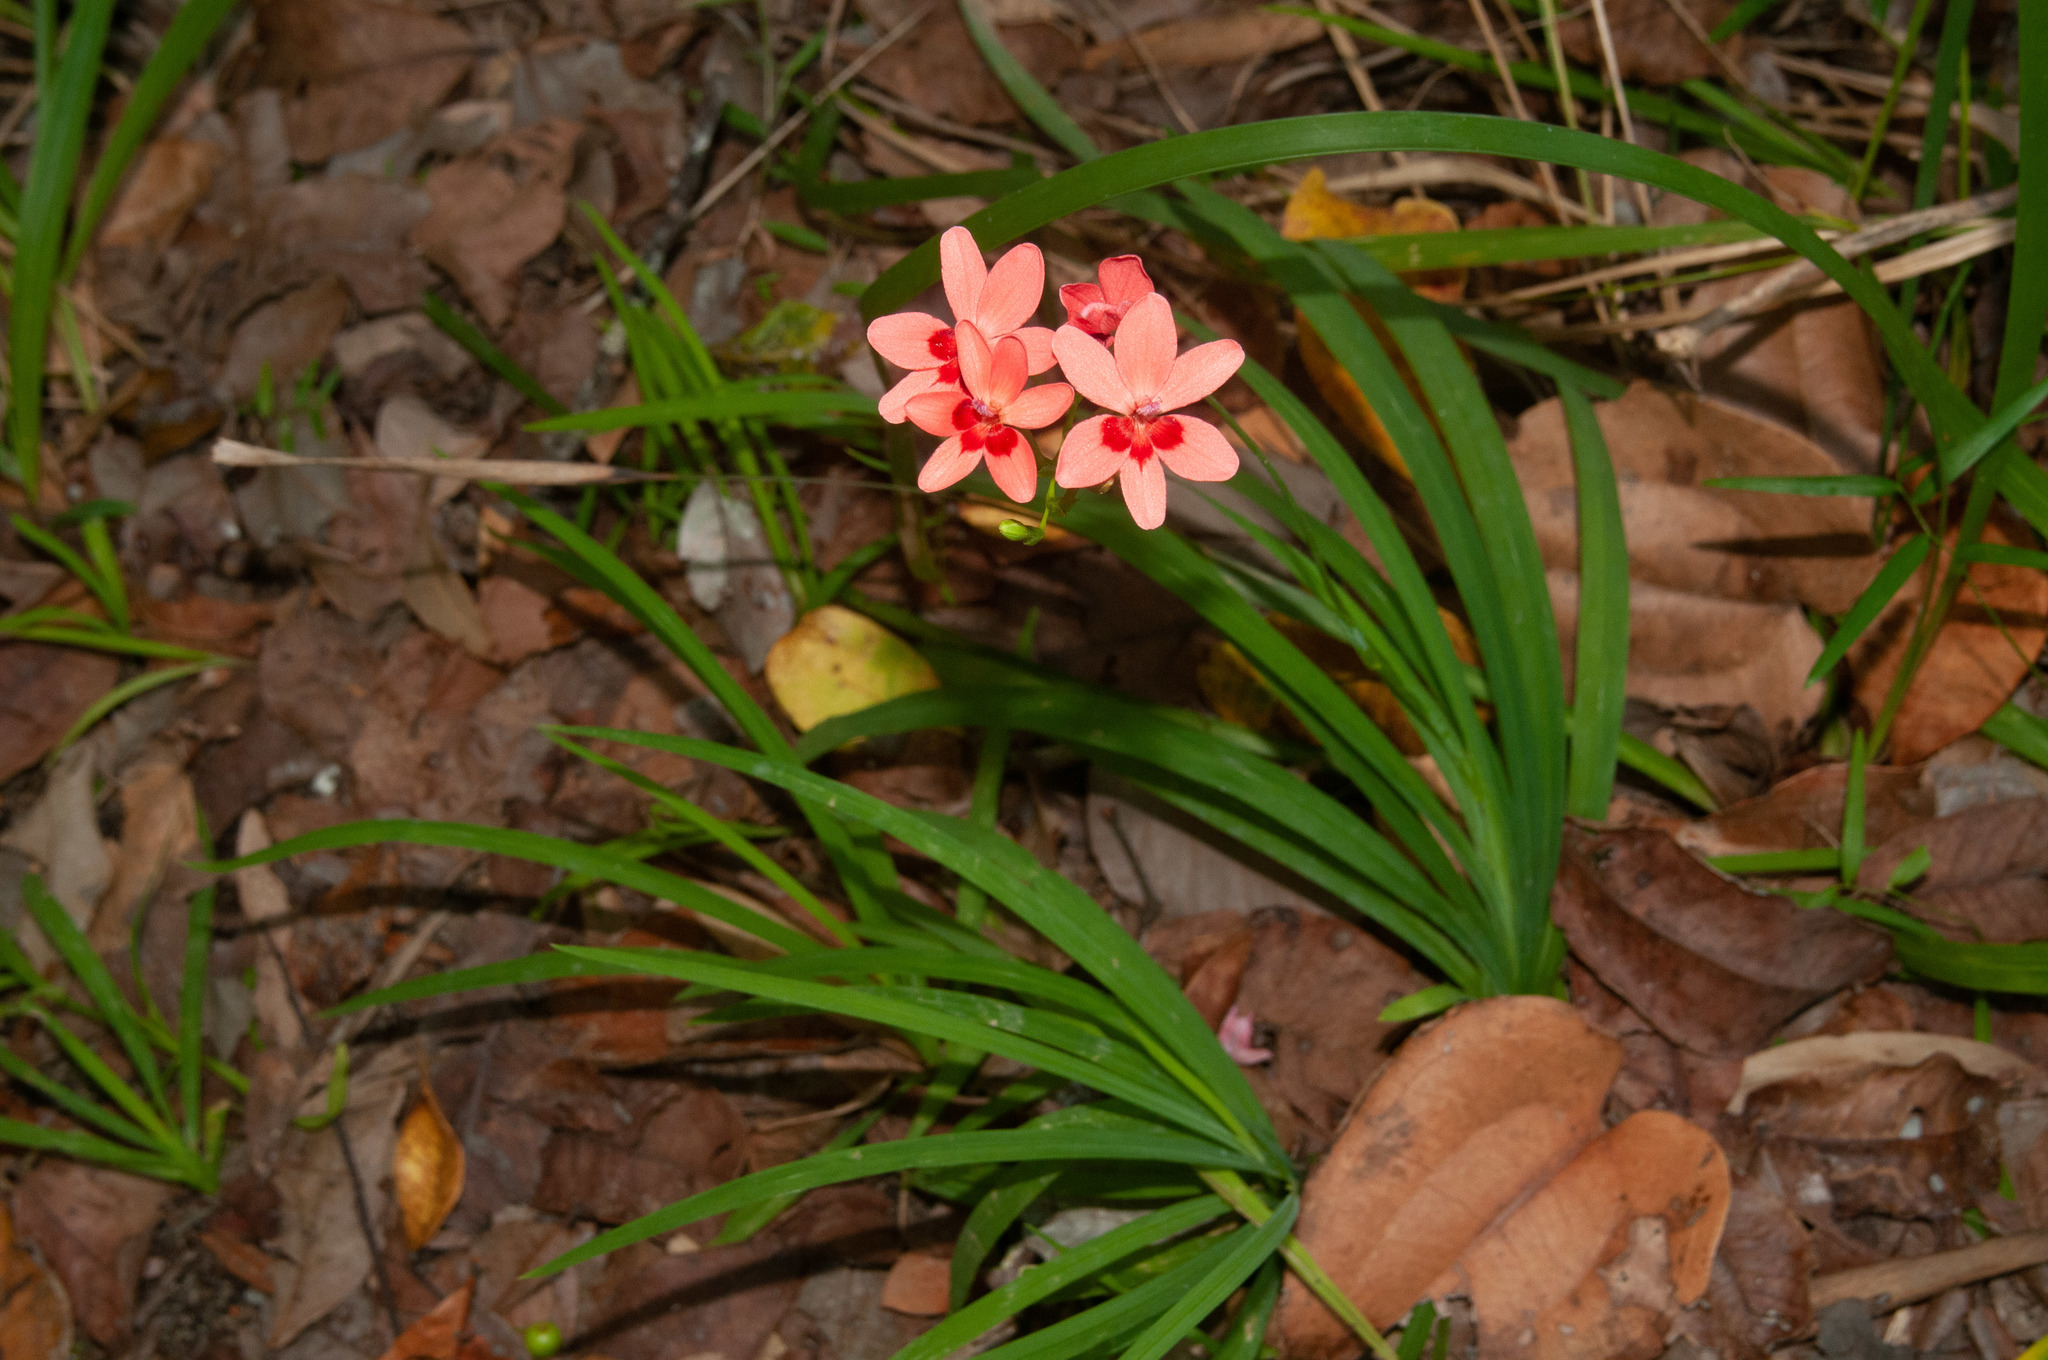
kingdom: Plantae
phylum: Tracheophyta
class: Liliopsida
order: Asparagales
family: Iridaceae
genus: Freesia
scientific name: Freesia laxa
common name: False freesia
